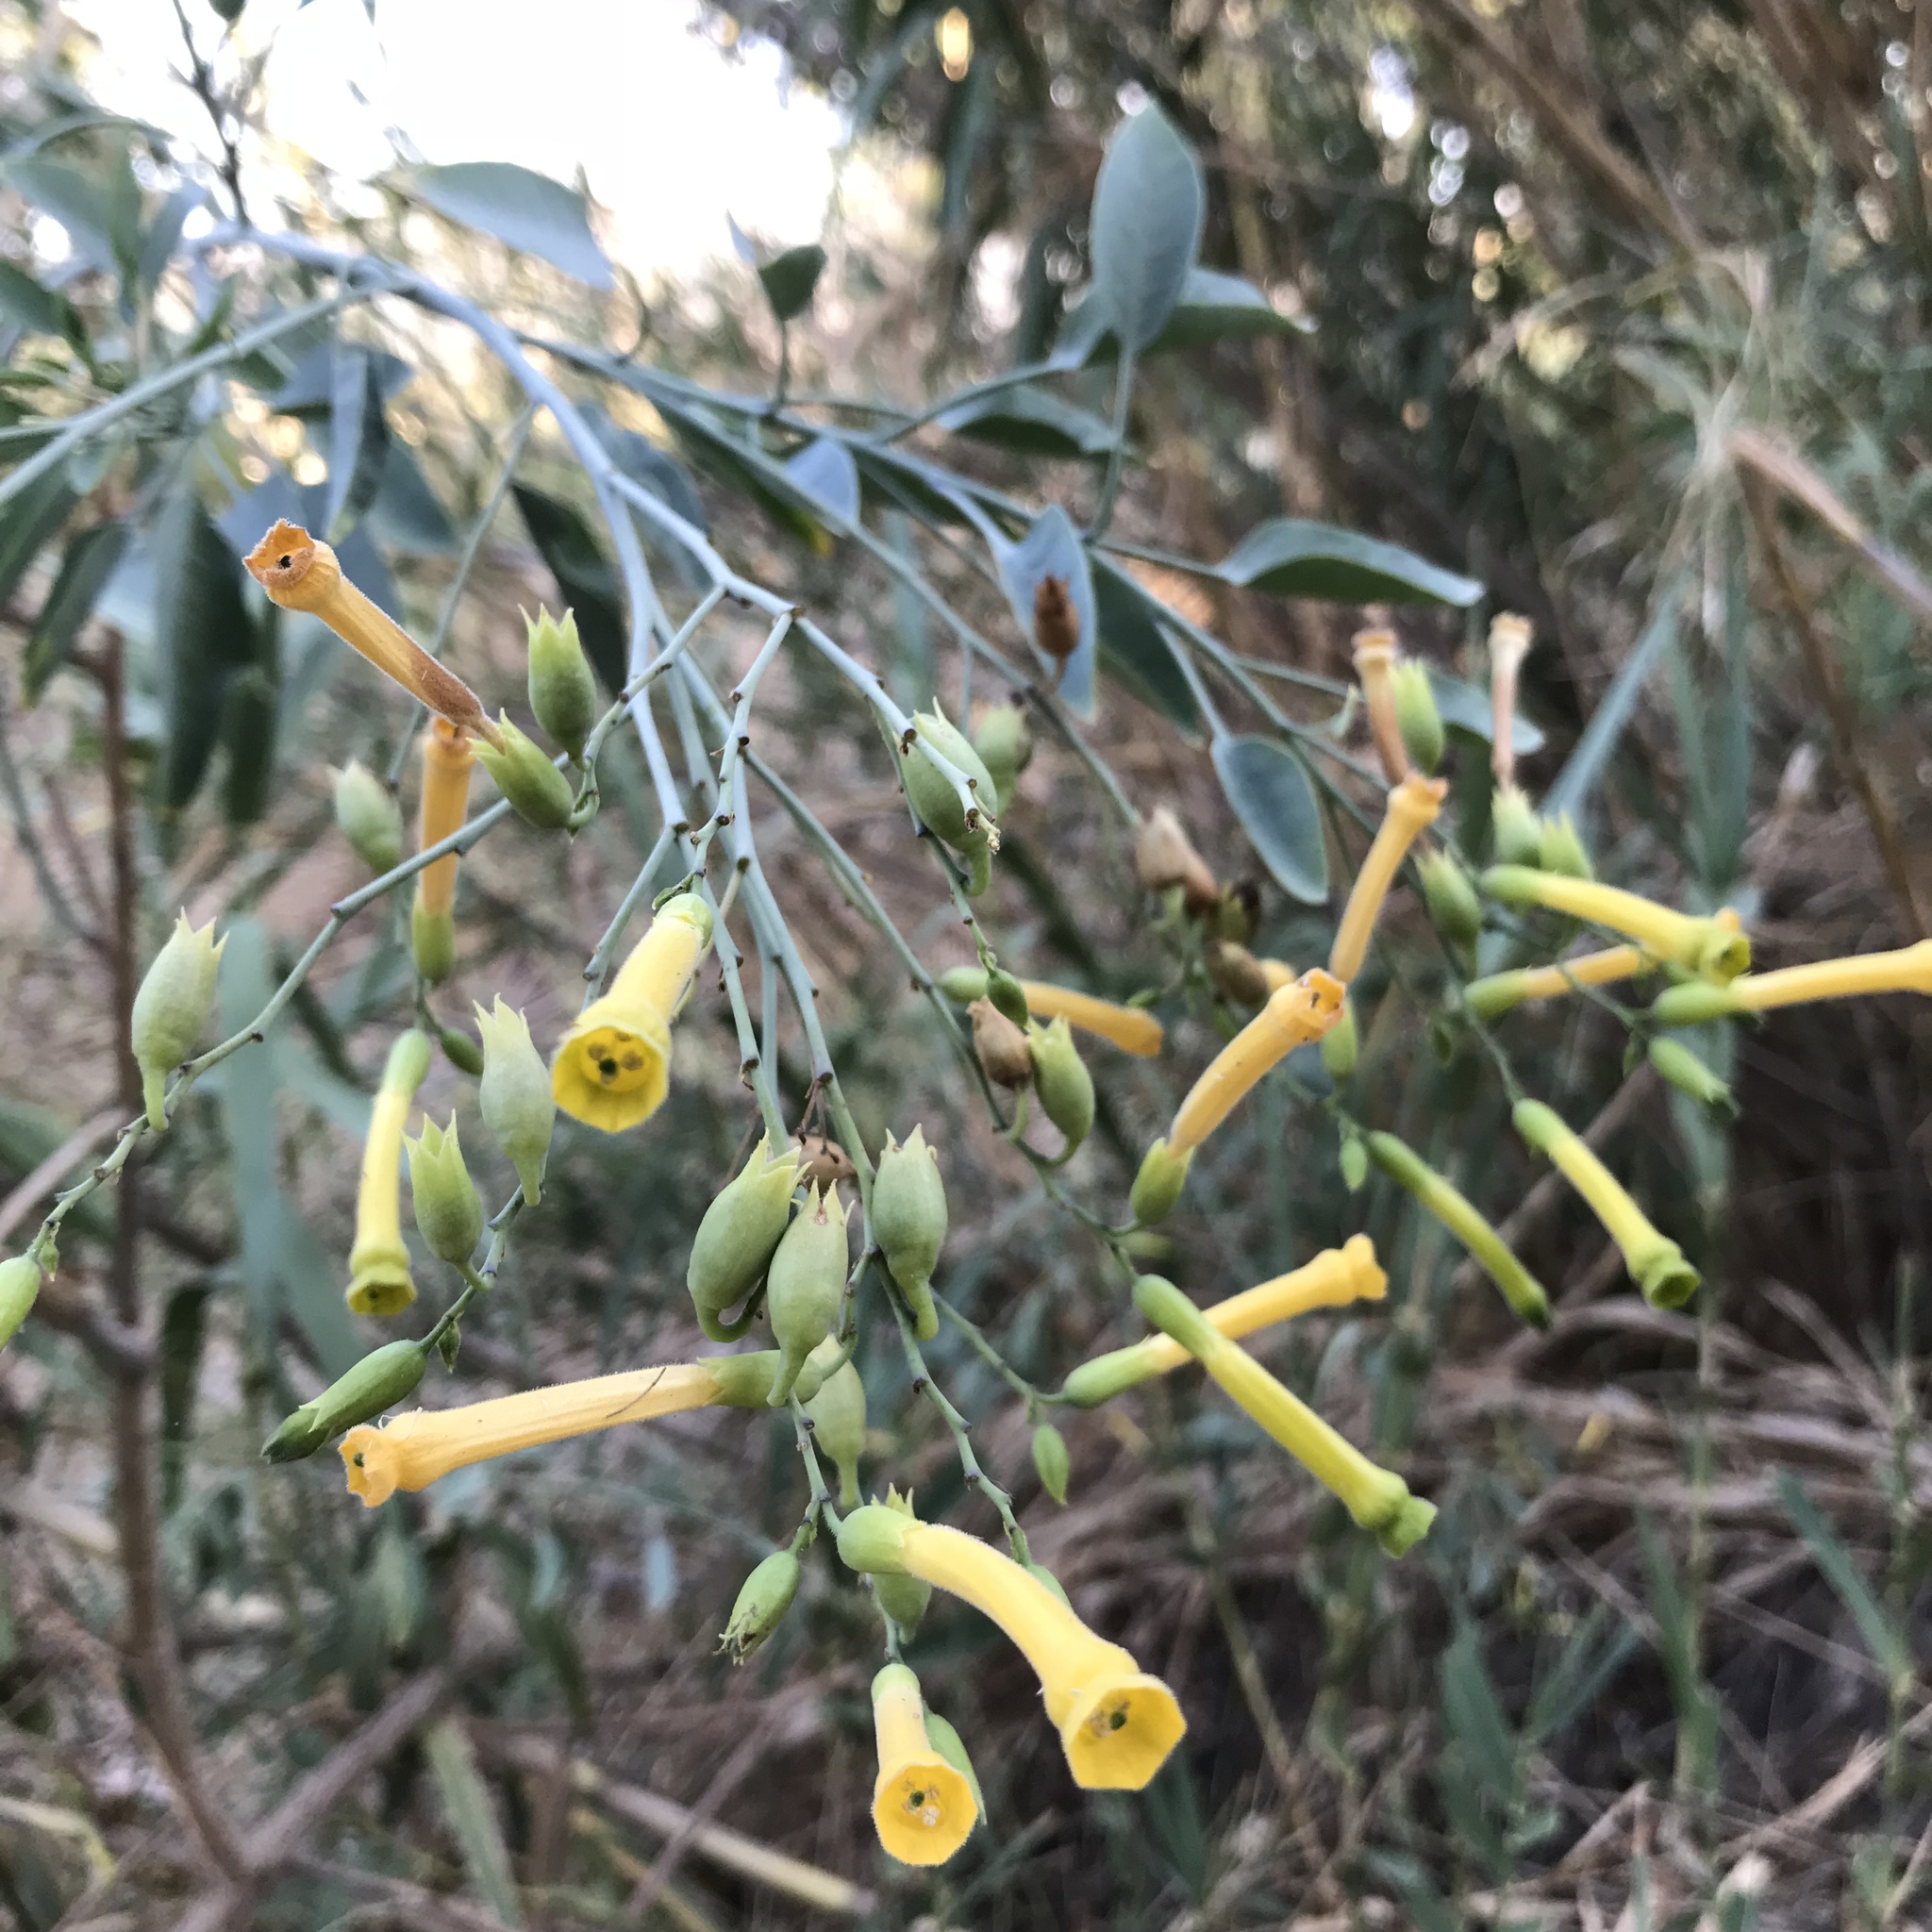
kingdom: Plantae
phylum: Tracheophyta
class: Magnoliopsida
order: Solanales
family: Solanaceae
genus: Nicotiana
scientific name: Nicotiana glauca
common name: Tree tobacco
